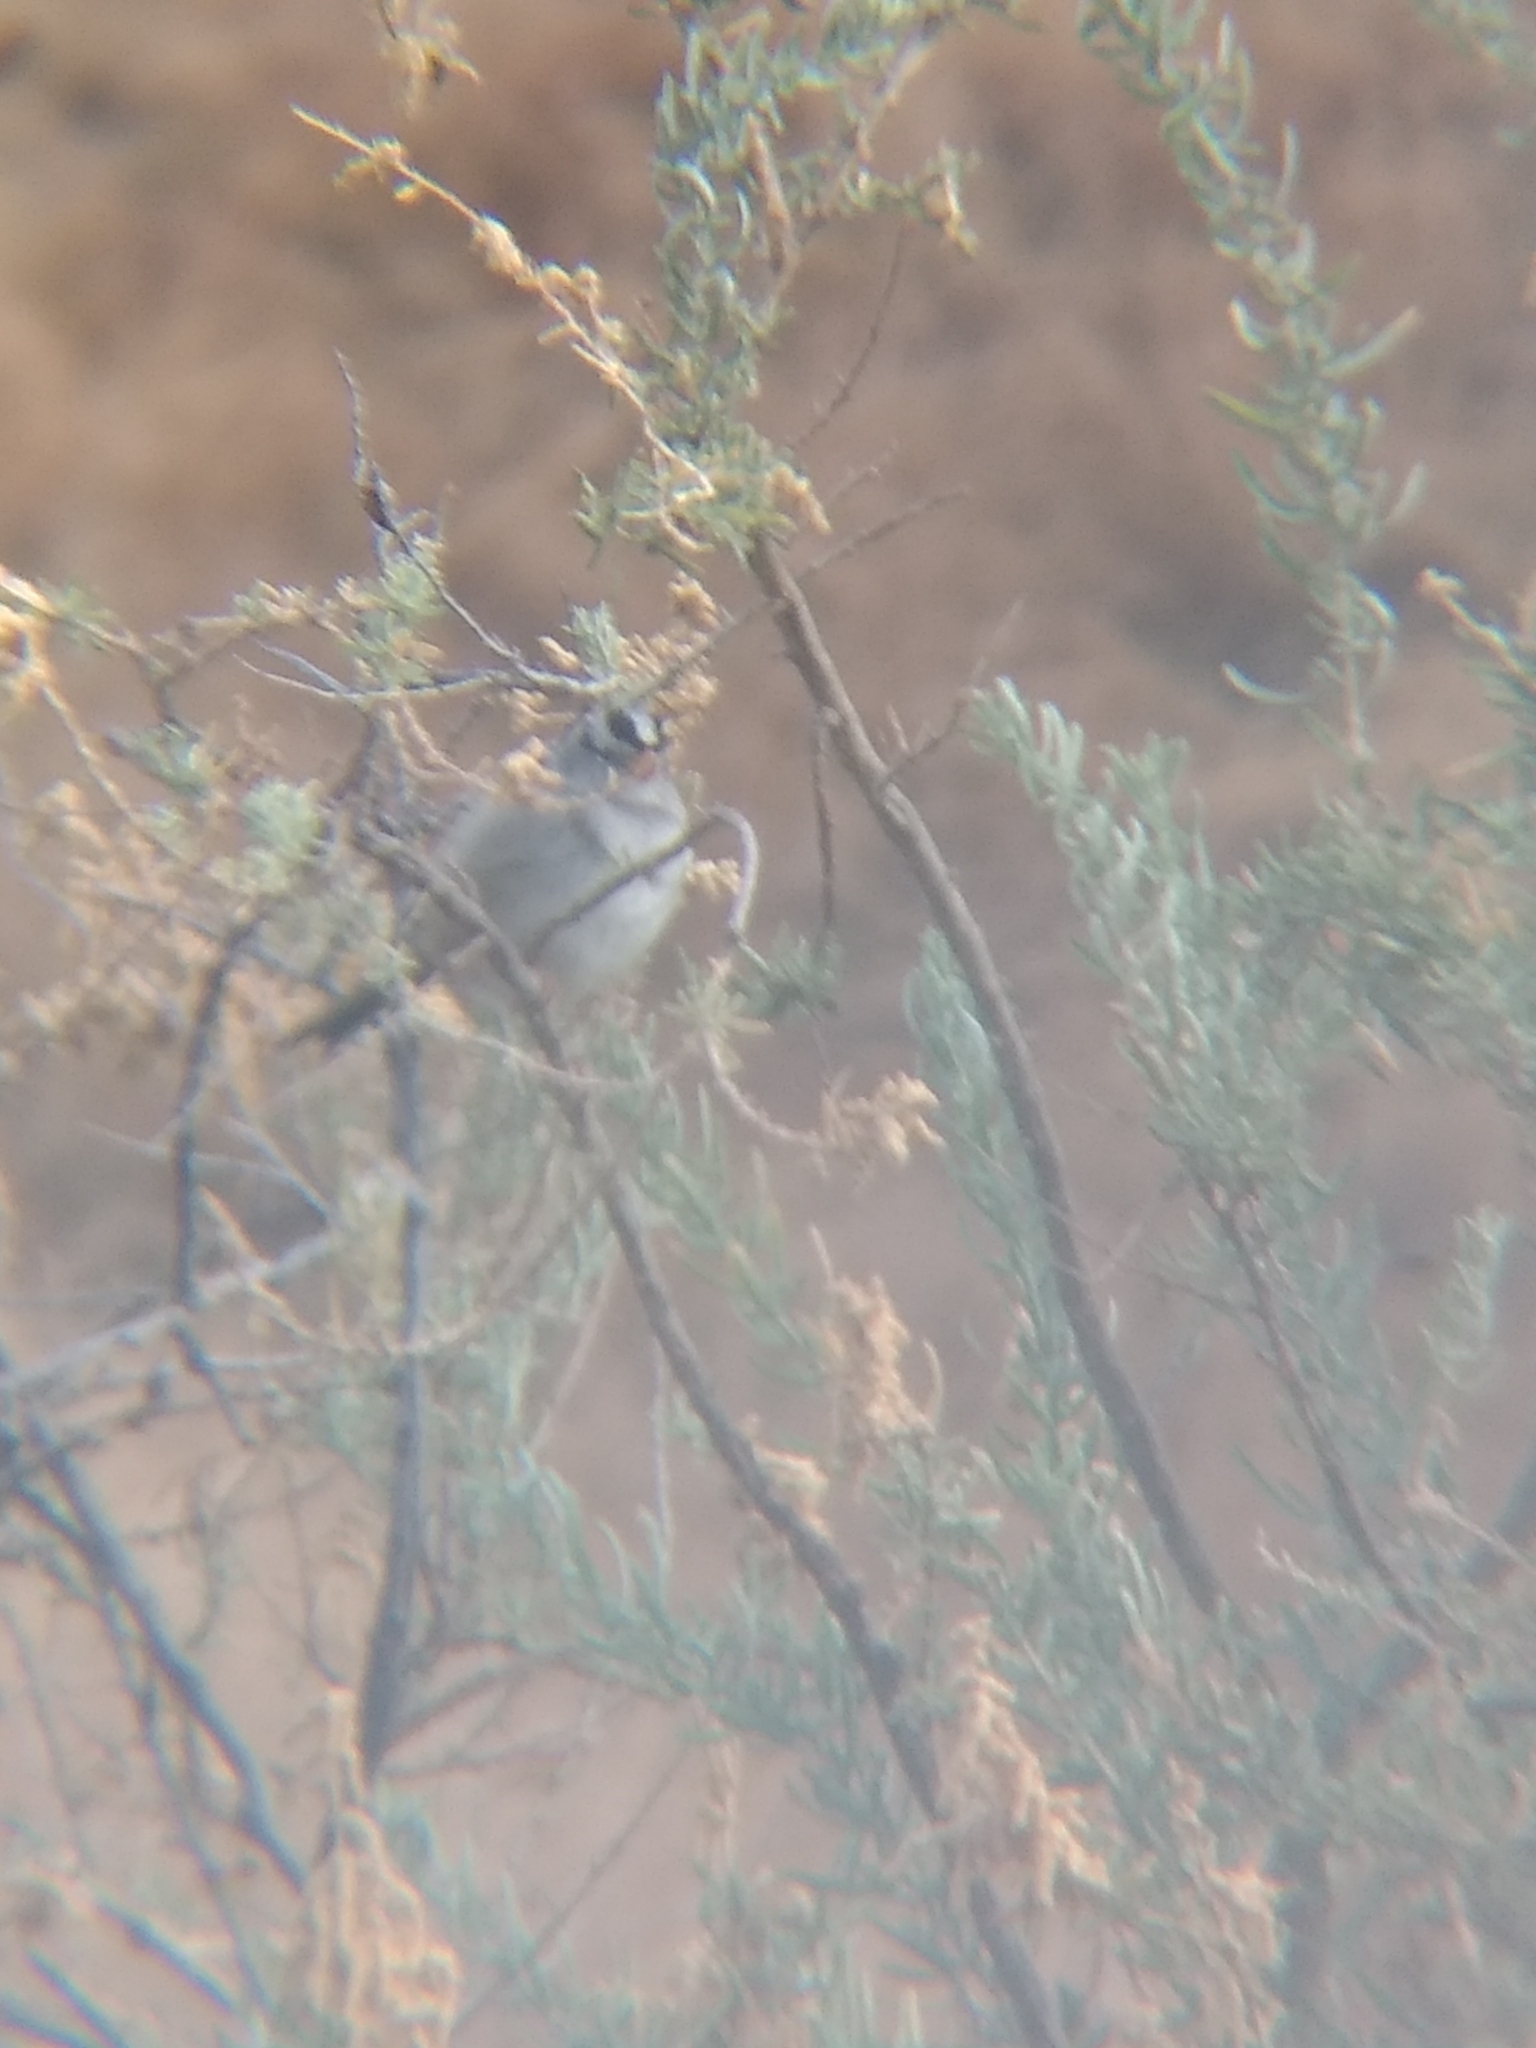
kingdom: Animalia
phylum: Chordata
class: Aves
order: Passeriformes
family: Passerellidae
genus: Zonotrichia
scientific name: Zonotrichia leucophrys
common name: White-crowned sparrow
